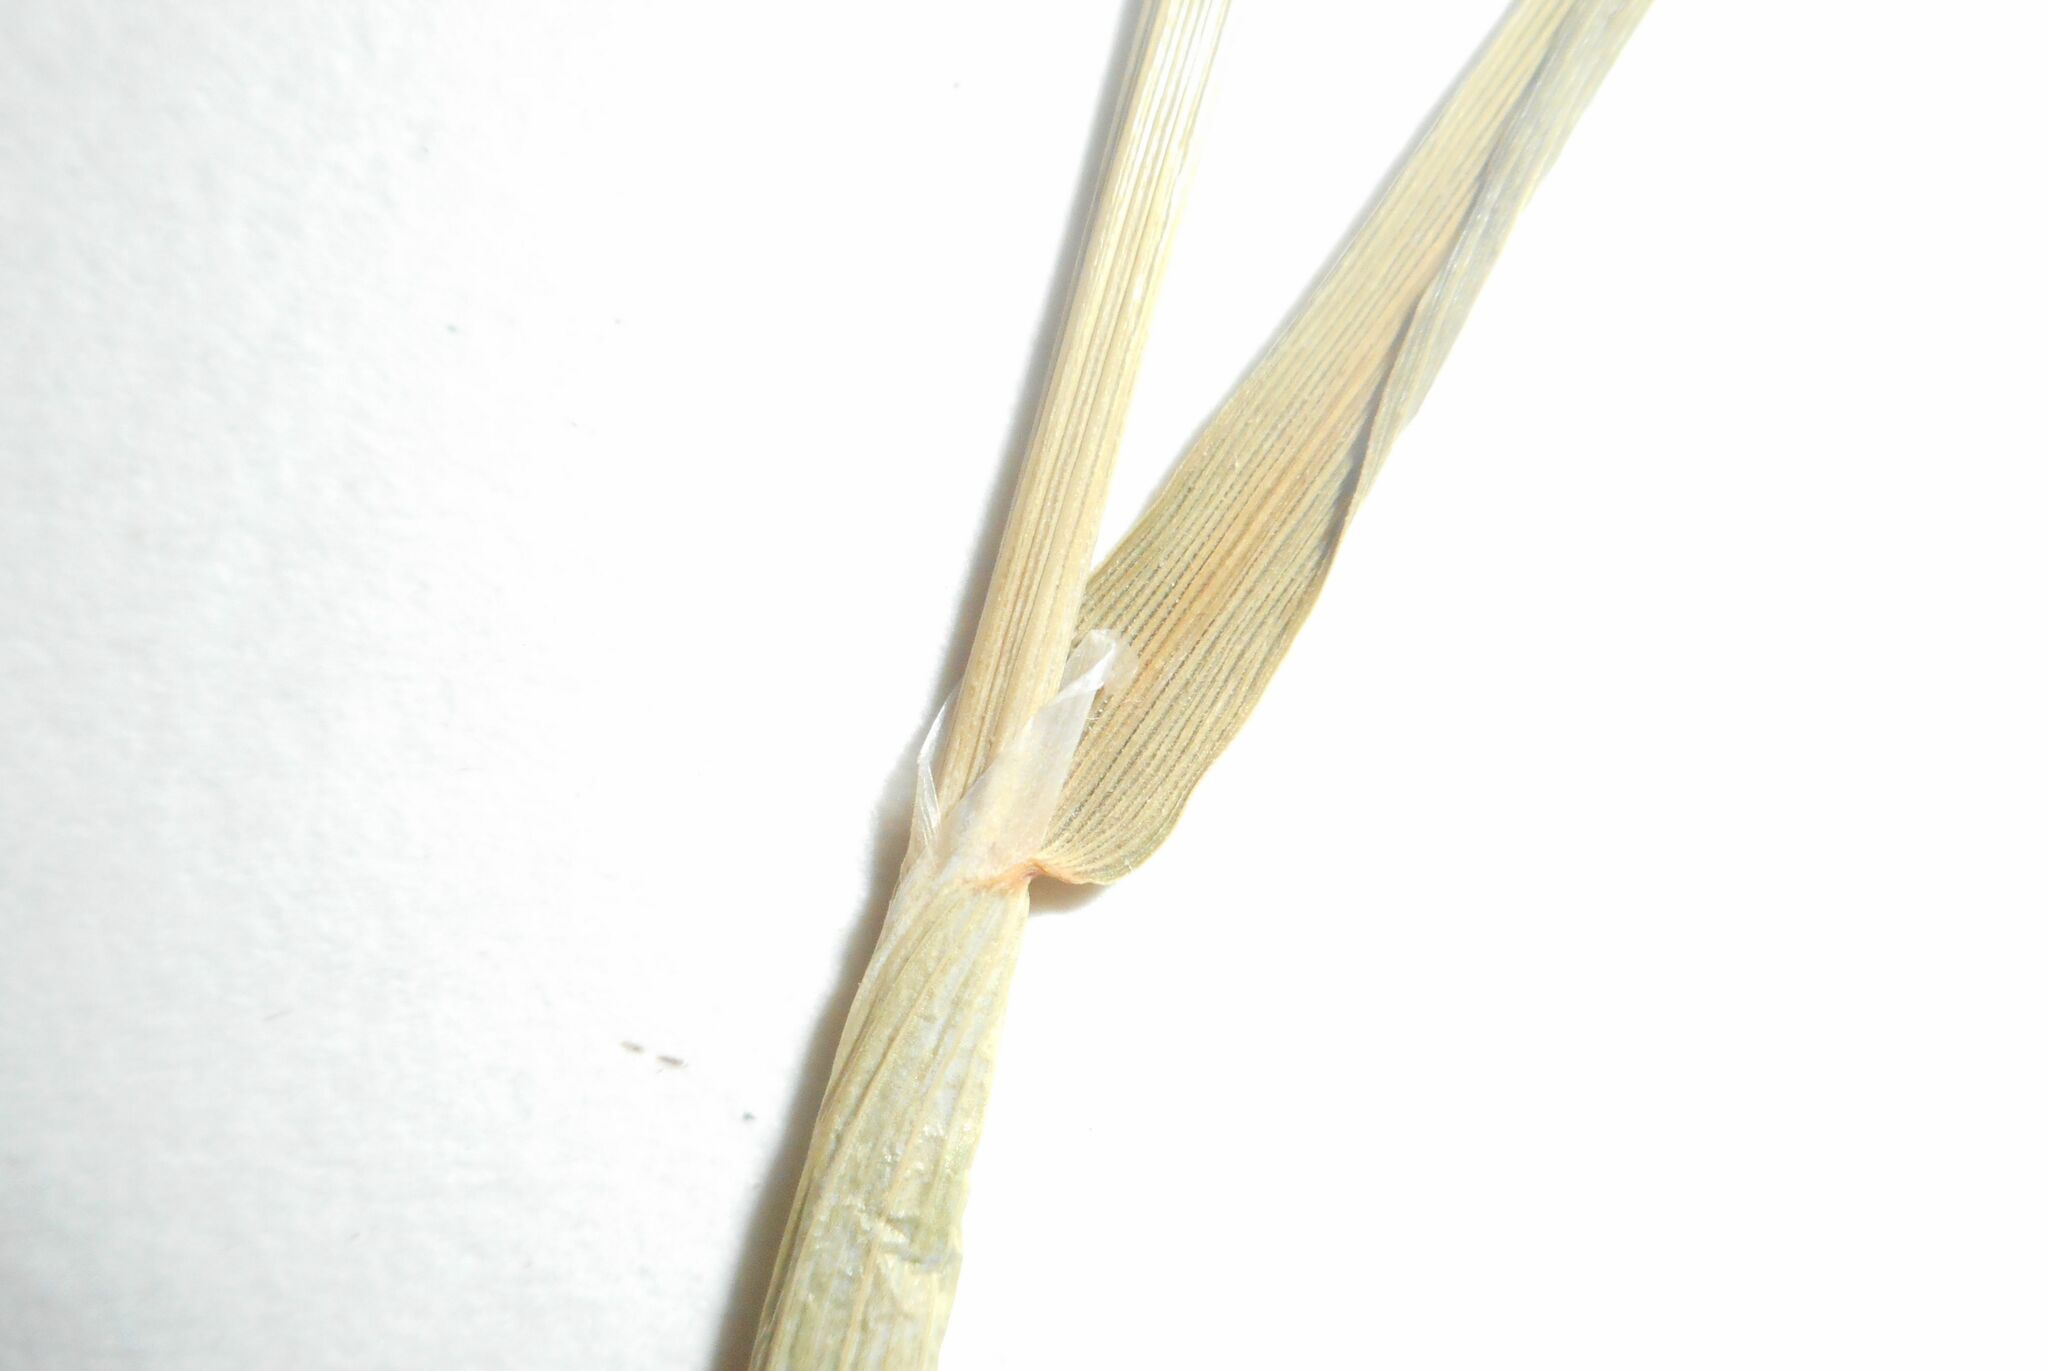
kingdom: Plantae
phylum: Tracheophyta
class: Liliopsida
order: Poales
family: Poaceae
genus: Alopecurus
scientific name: Alopecurus geniculatus
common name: Water foxtail
